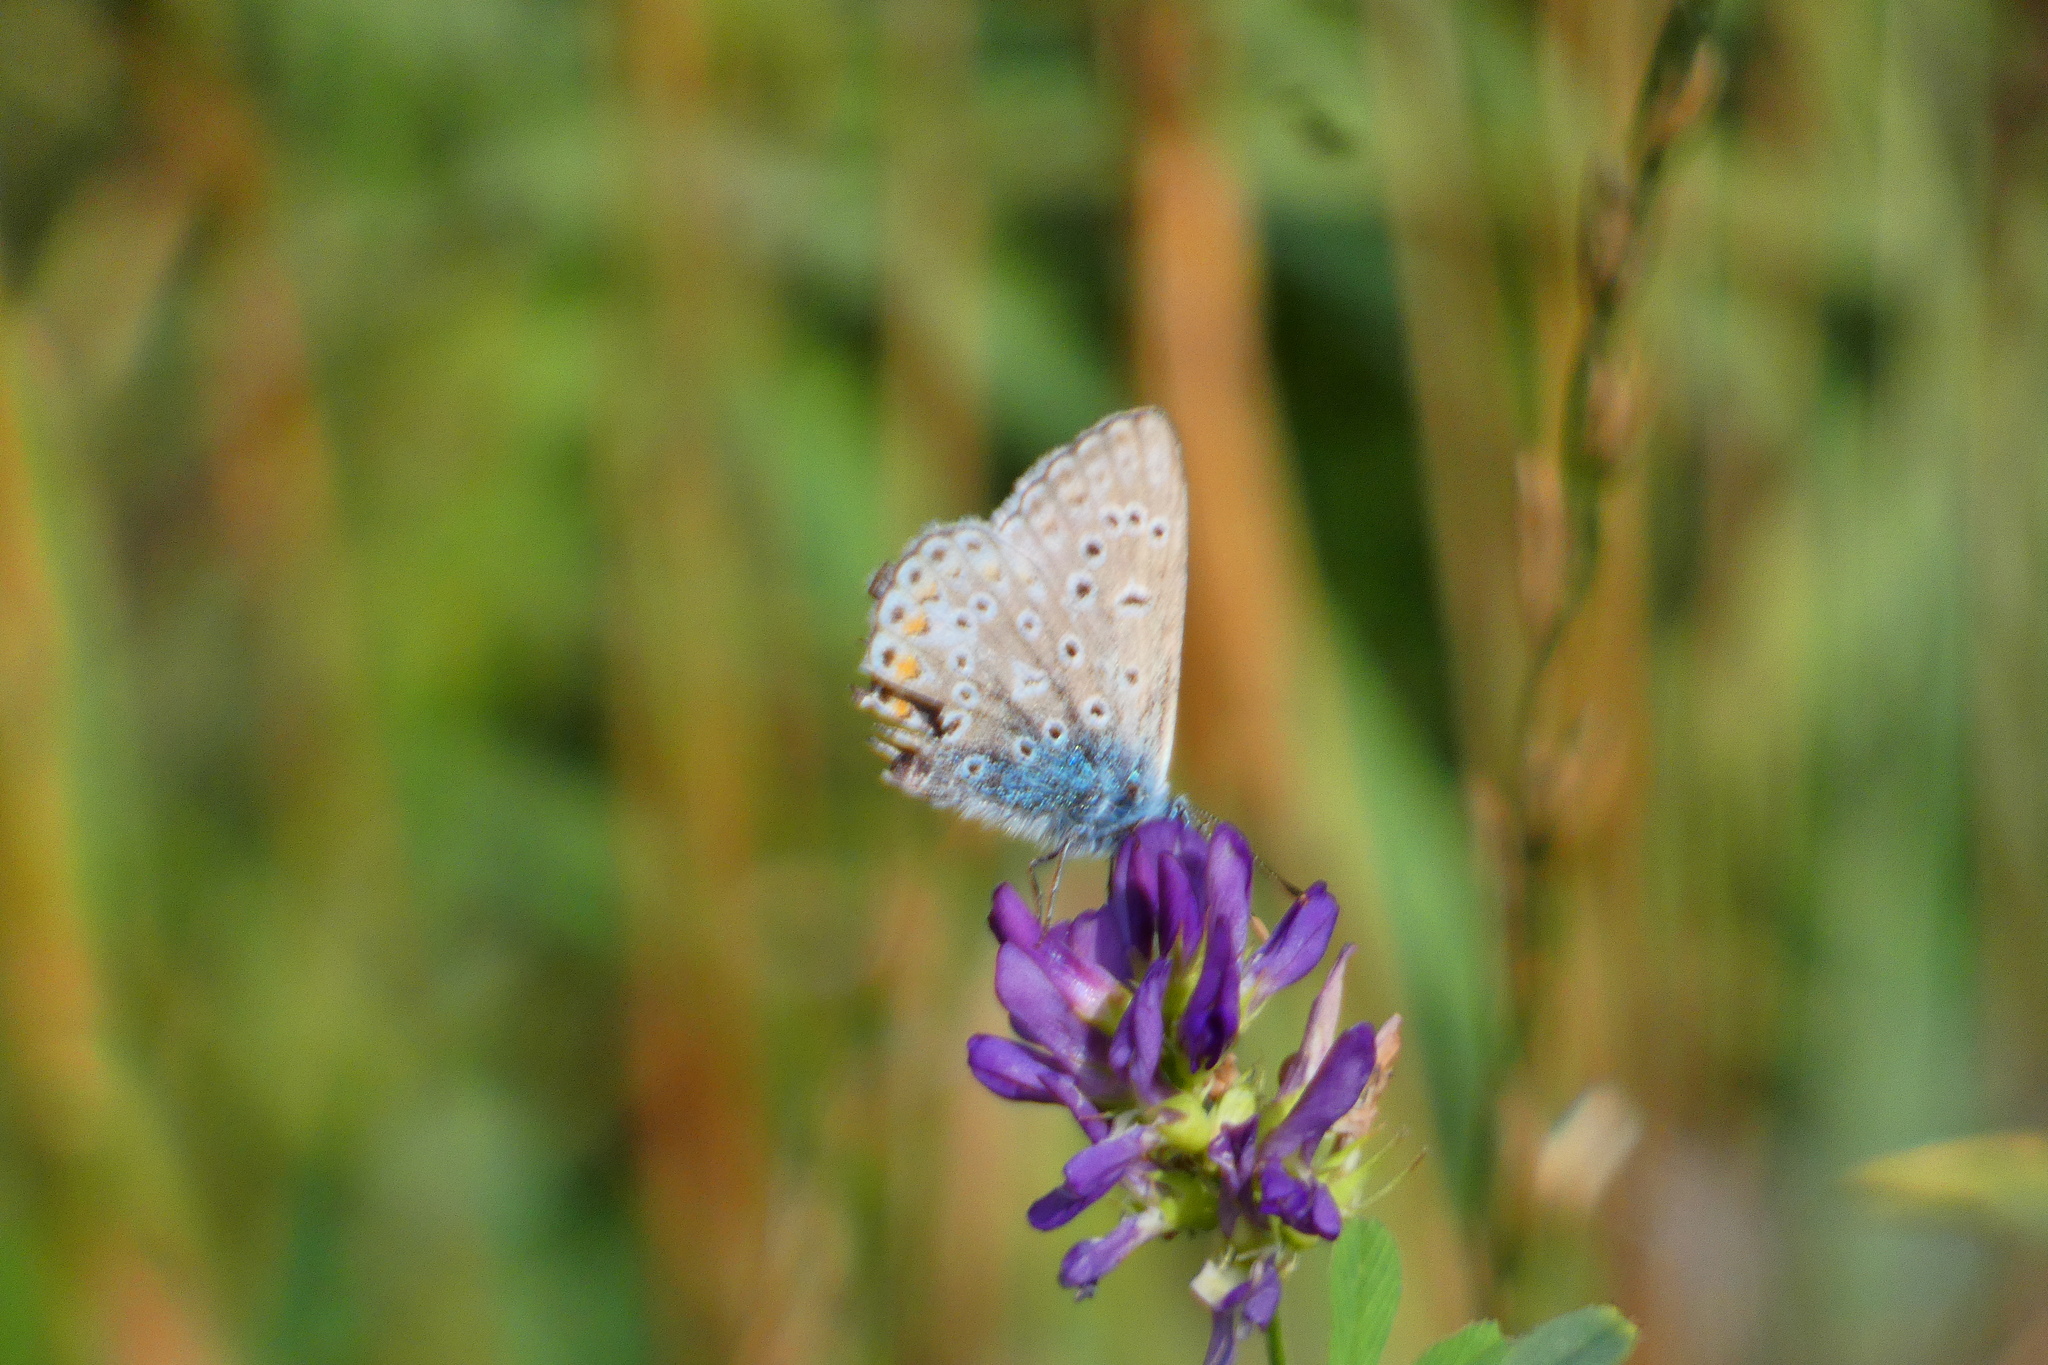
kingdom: Animalia
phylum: Arthropoda
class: Insecta
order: Lepidoptera
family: Lycaenidae
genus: Polyommatus
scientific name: Polyommatus icarus
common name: Common blue
